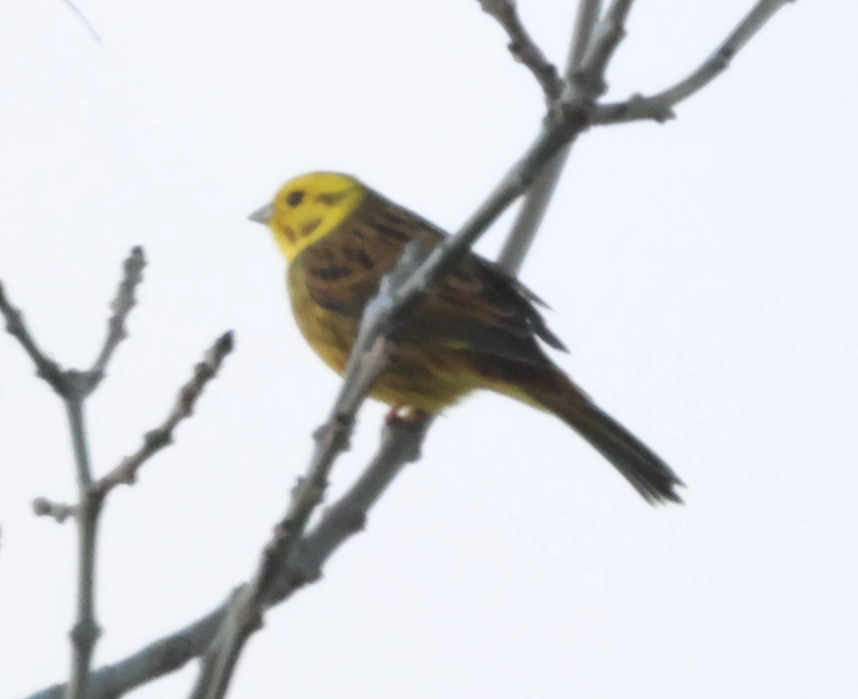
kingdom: Animalia
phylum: Chordata
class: Aves
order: Passeriformes
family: Emberizidae
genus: Emberiza
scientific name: Emberiza citrinella
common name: Yellowhammer
